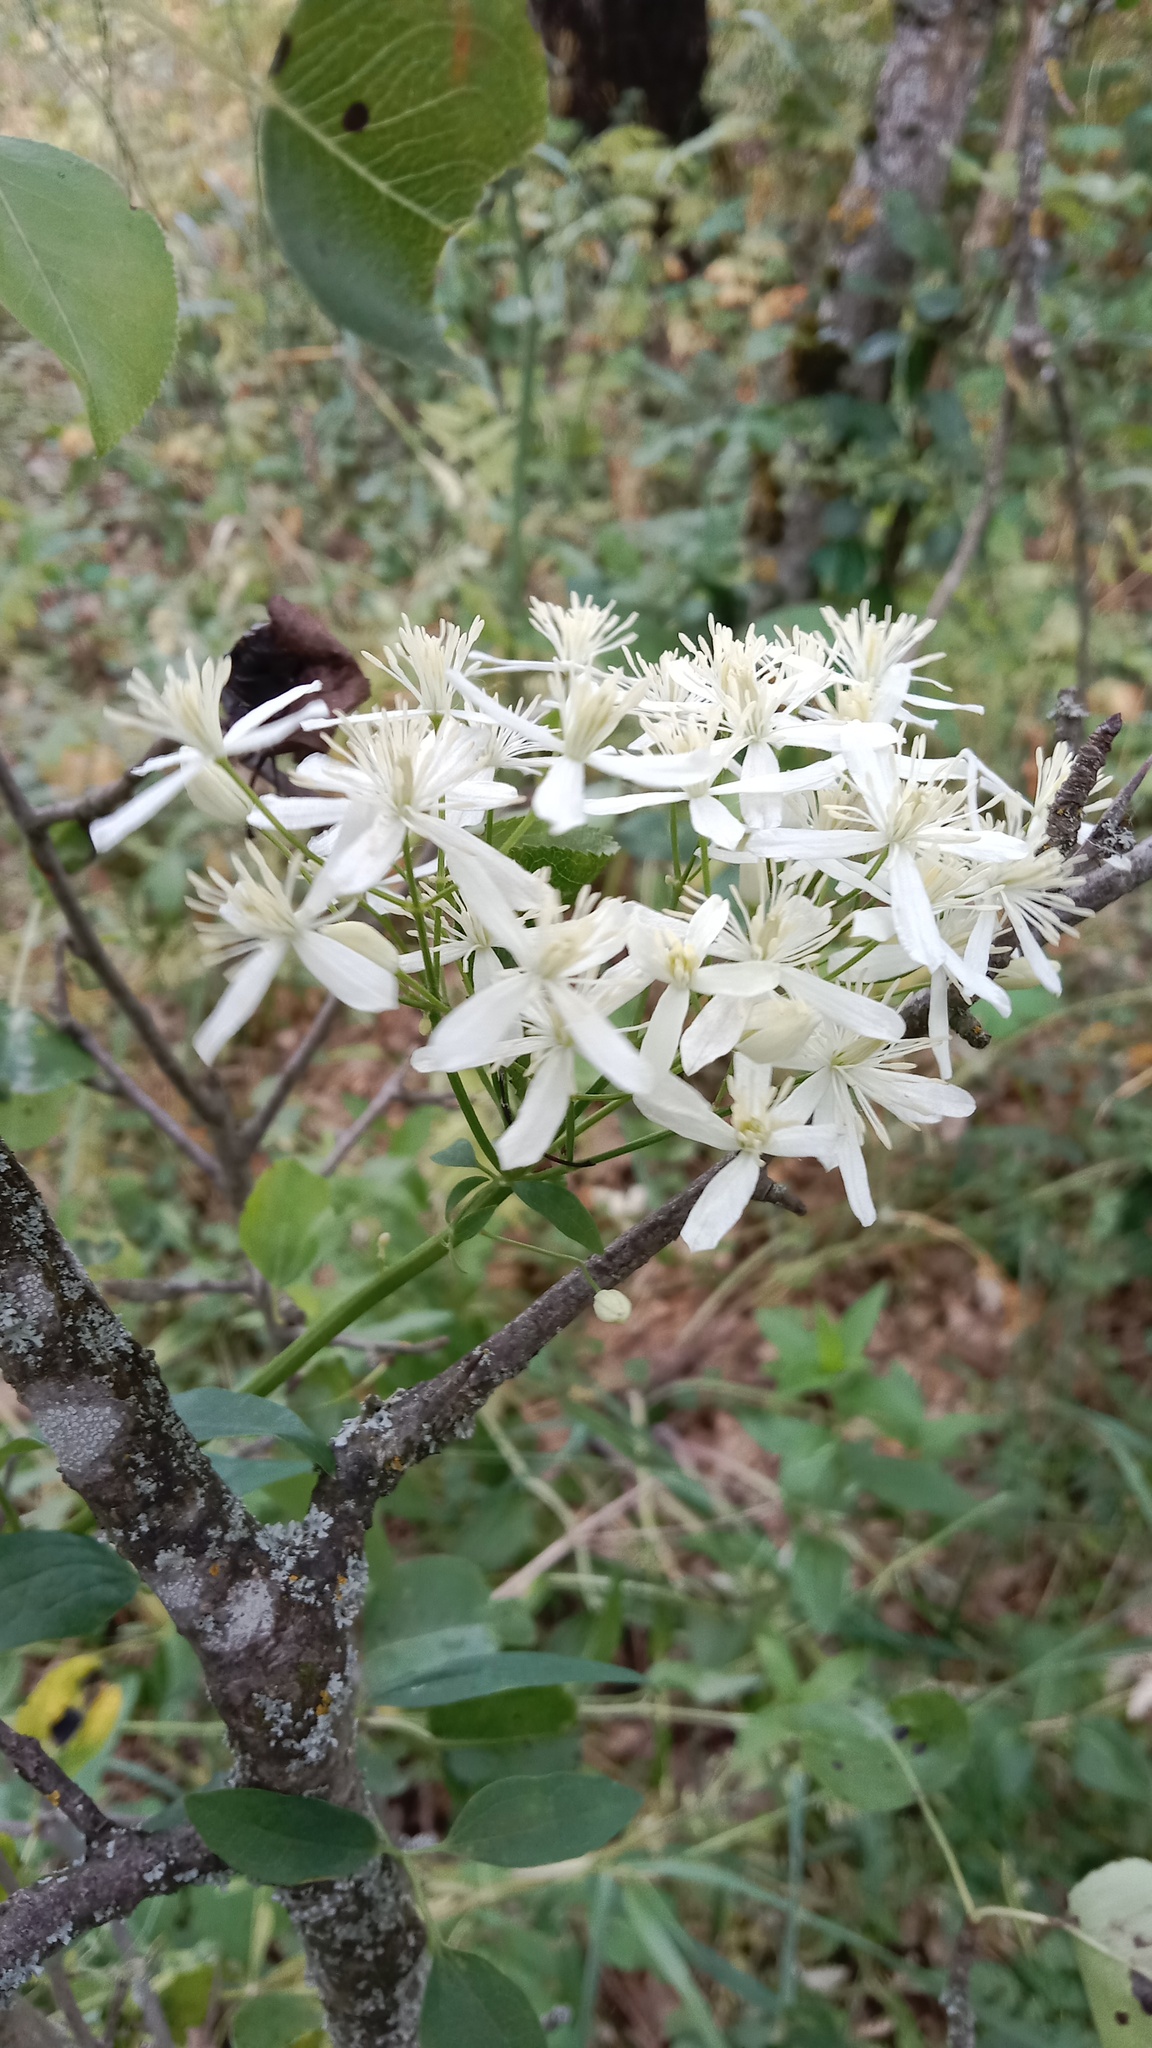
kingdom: Plantae
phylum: Tracheophyta
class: Magnoliopsida
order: Ranunculales
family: Ranunculaceae
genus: Clematis
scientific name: Clematis recta
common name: Ground clematis
